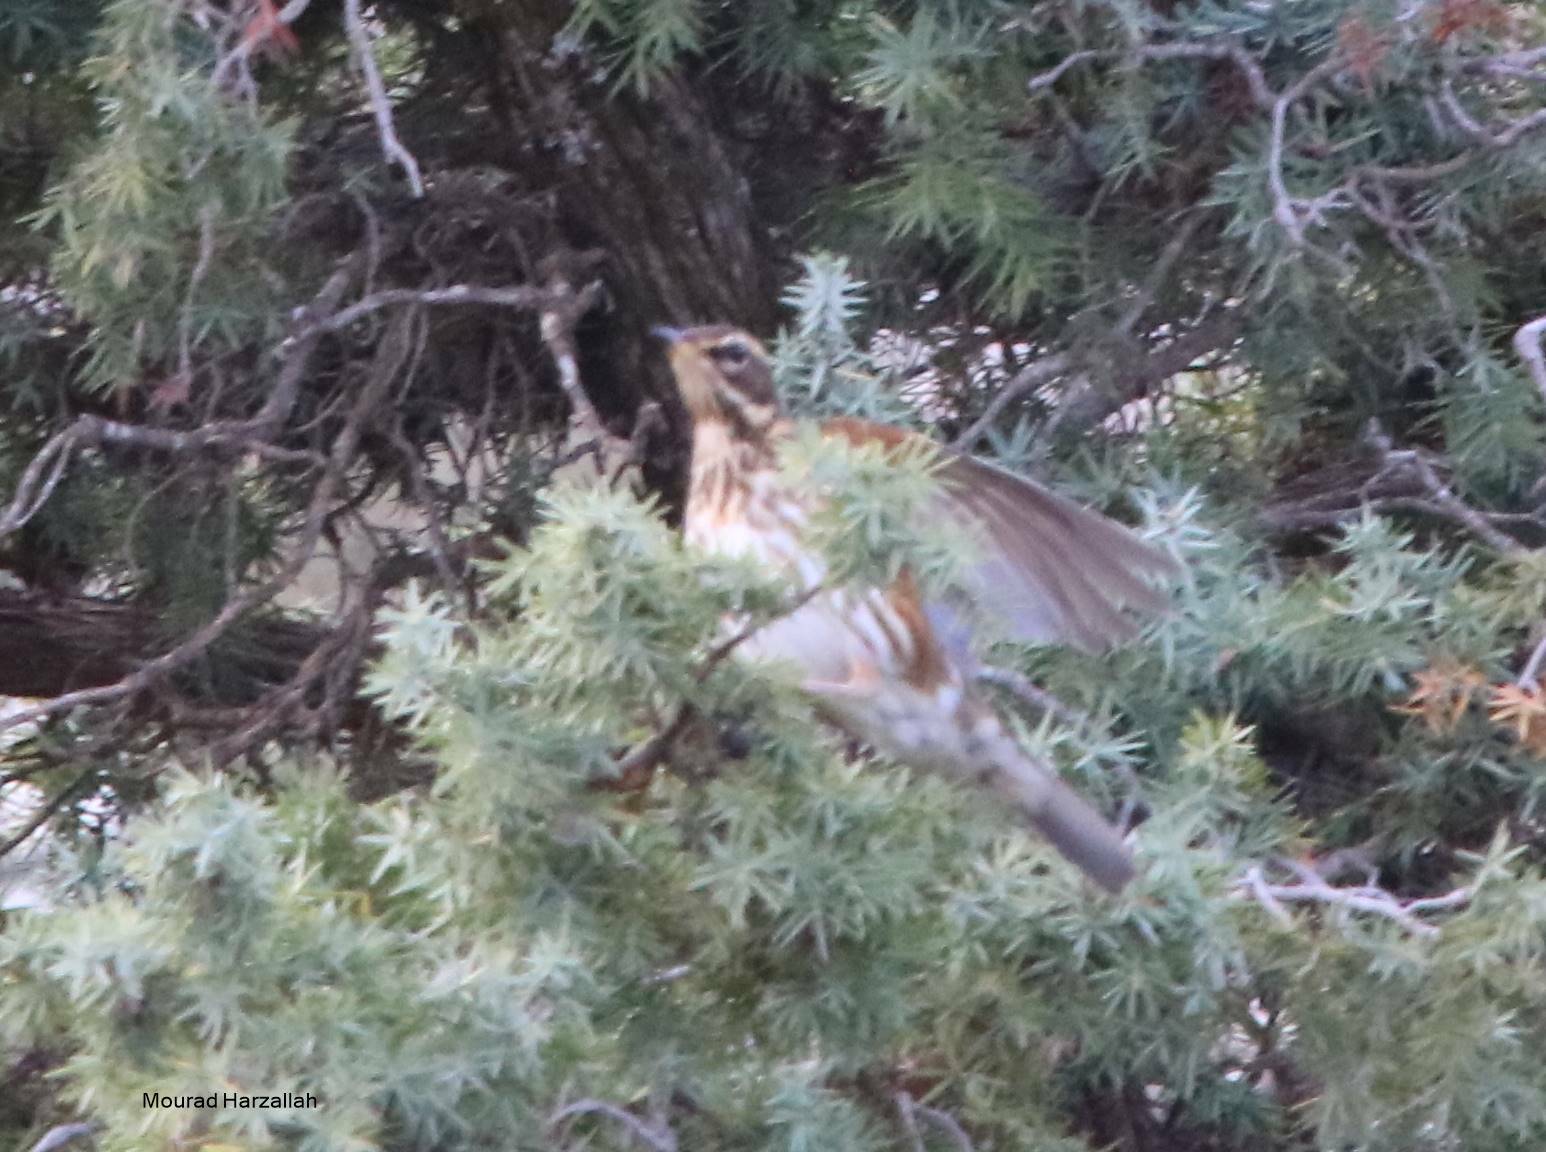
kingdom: Animalia
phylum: Chordata
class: Aves
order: Passeriformes
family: Turdidae
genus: Turdus
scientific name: Turdus iliacus
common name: Redwing
